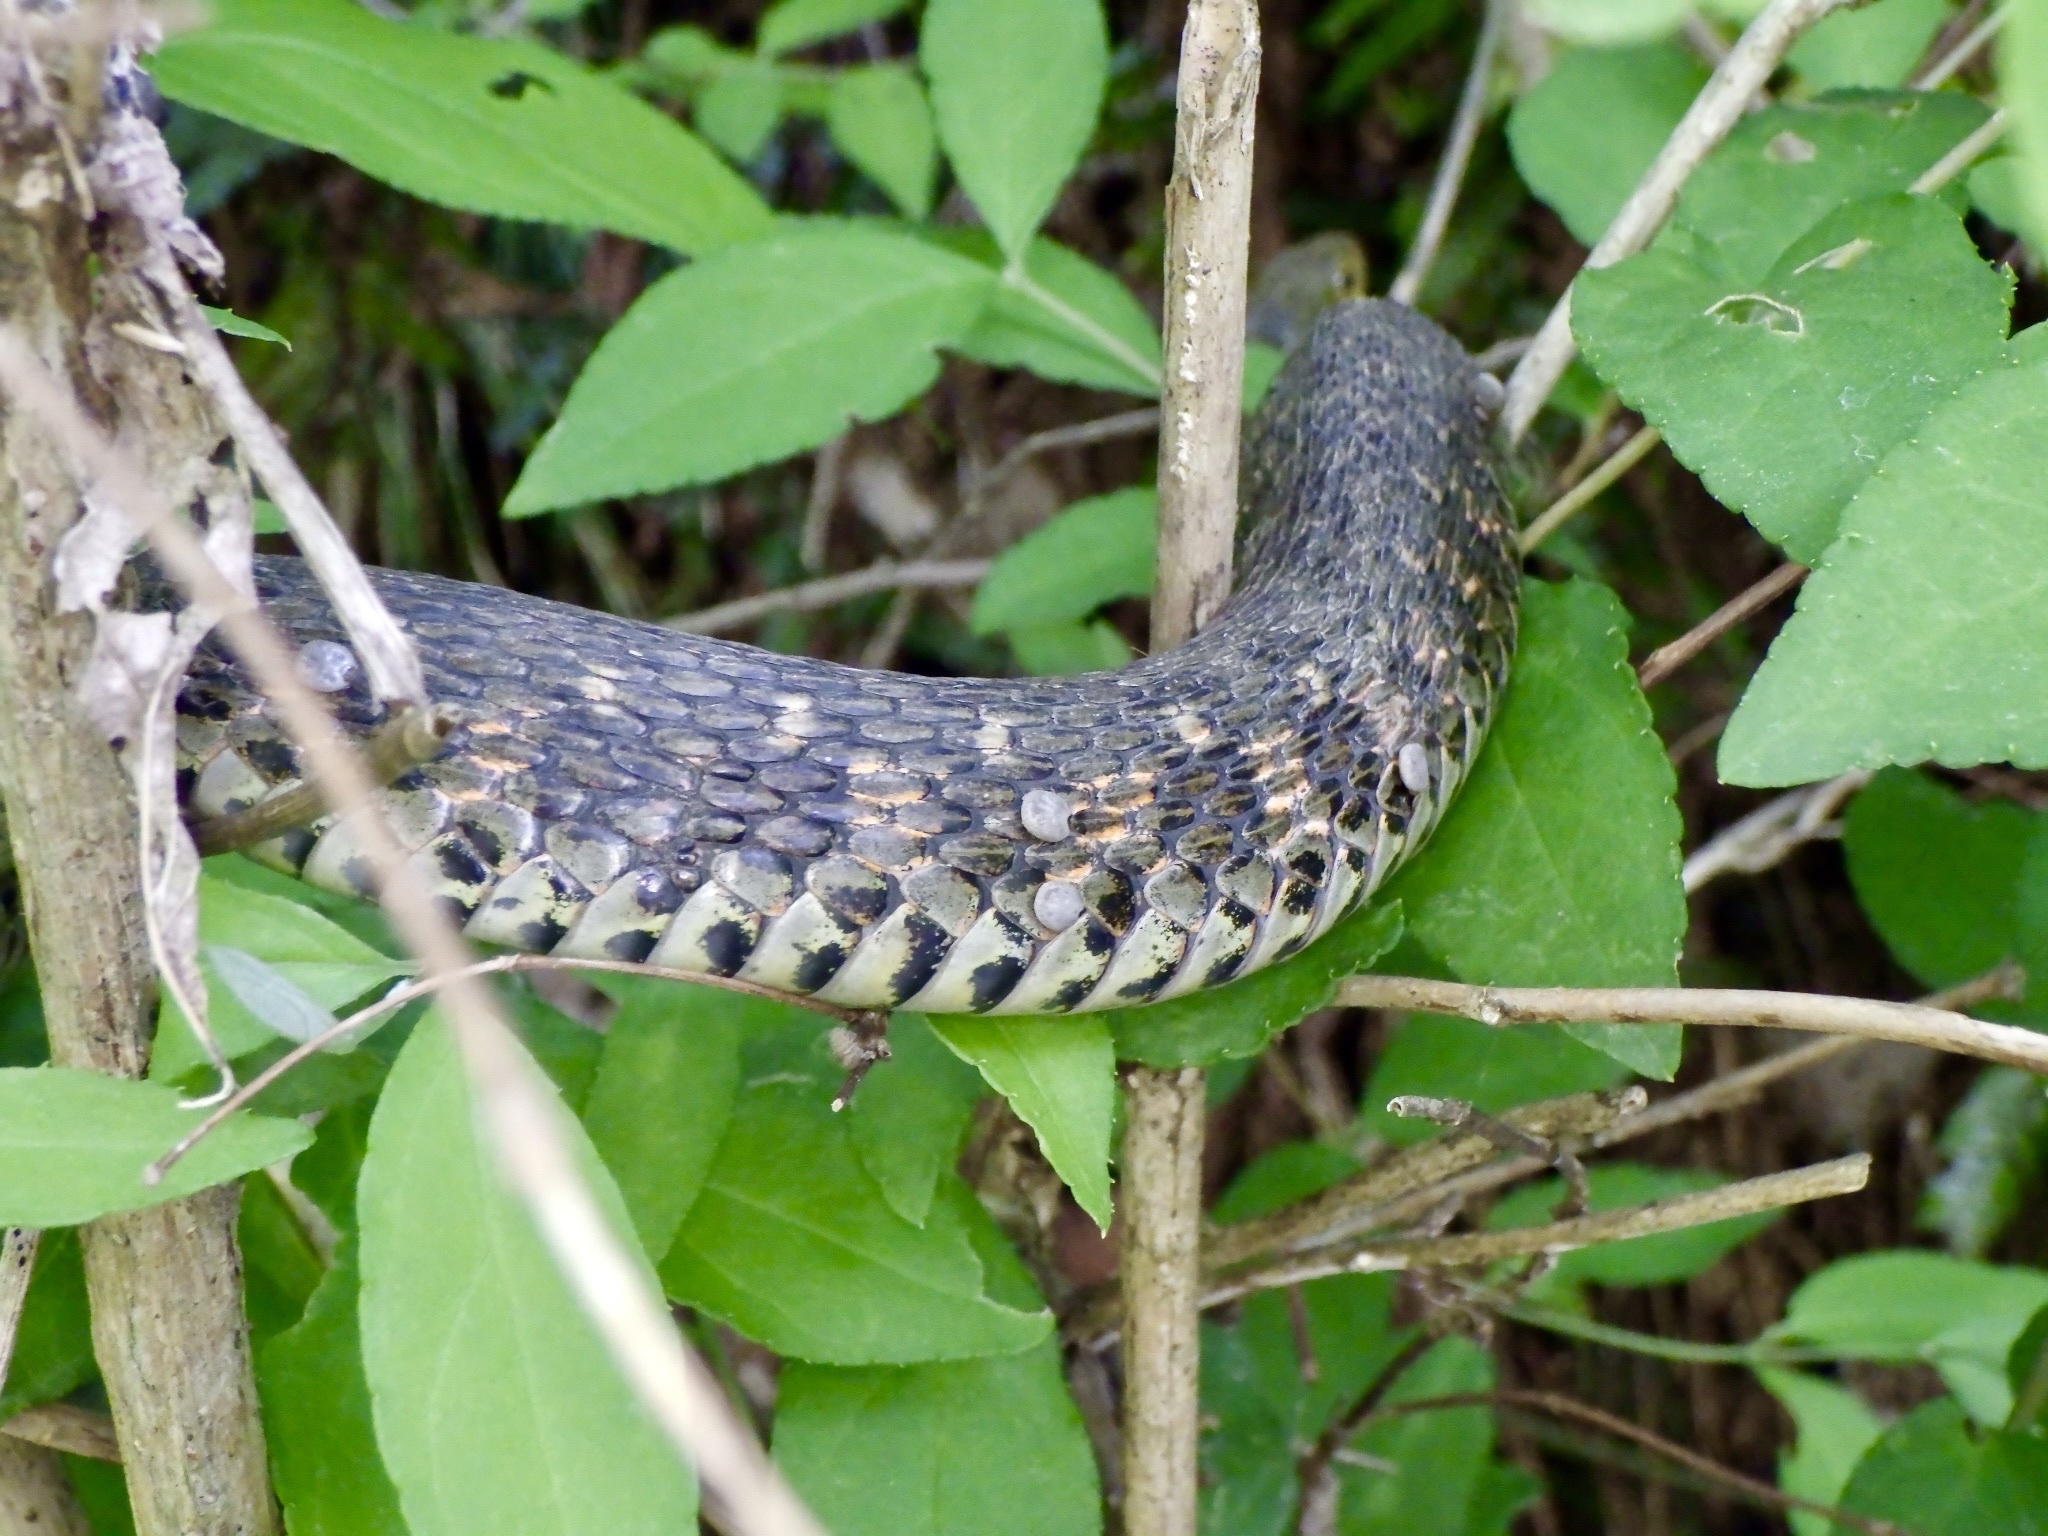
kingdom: Animalia
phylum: Chordata
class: Squamata
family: Colubridae
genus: Rhabdophis
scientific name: Rhabdophis tigrinus
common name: Tiger keelback
